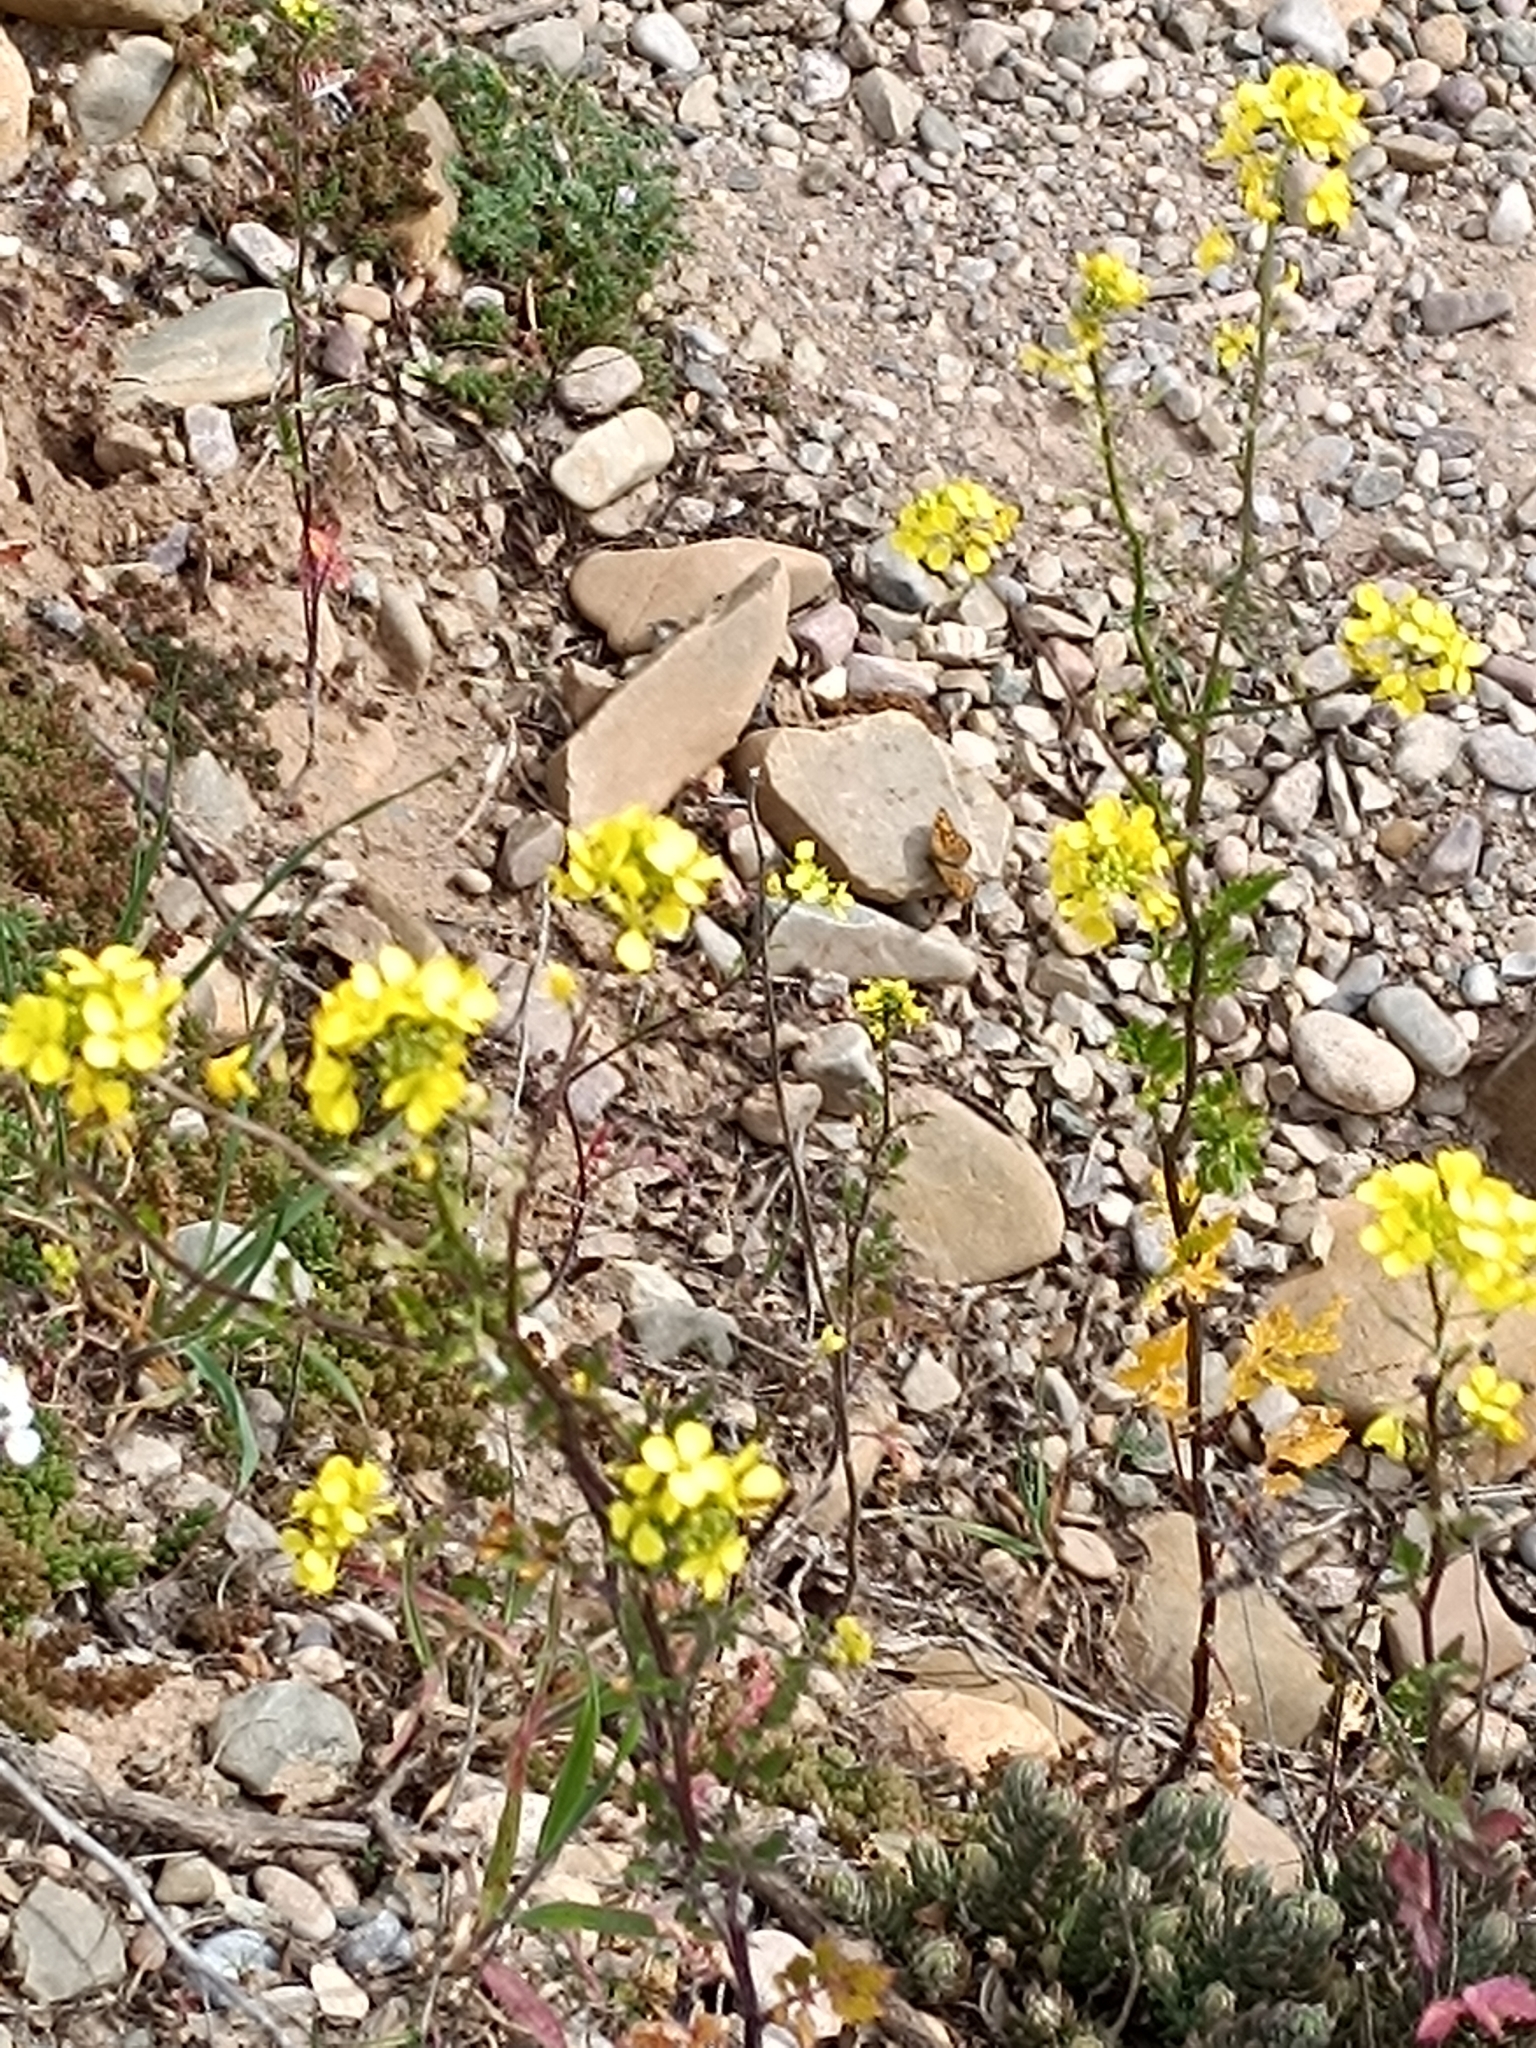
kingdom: Animalia
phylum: Arthropoda
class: Insecta
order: Lepidoptera
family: Nymphalidae
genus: Pararge
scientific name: Pararge aegeria
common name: Speckled wood
